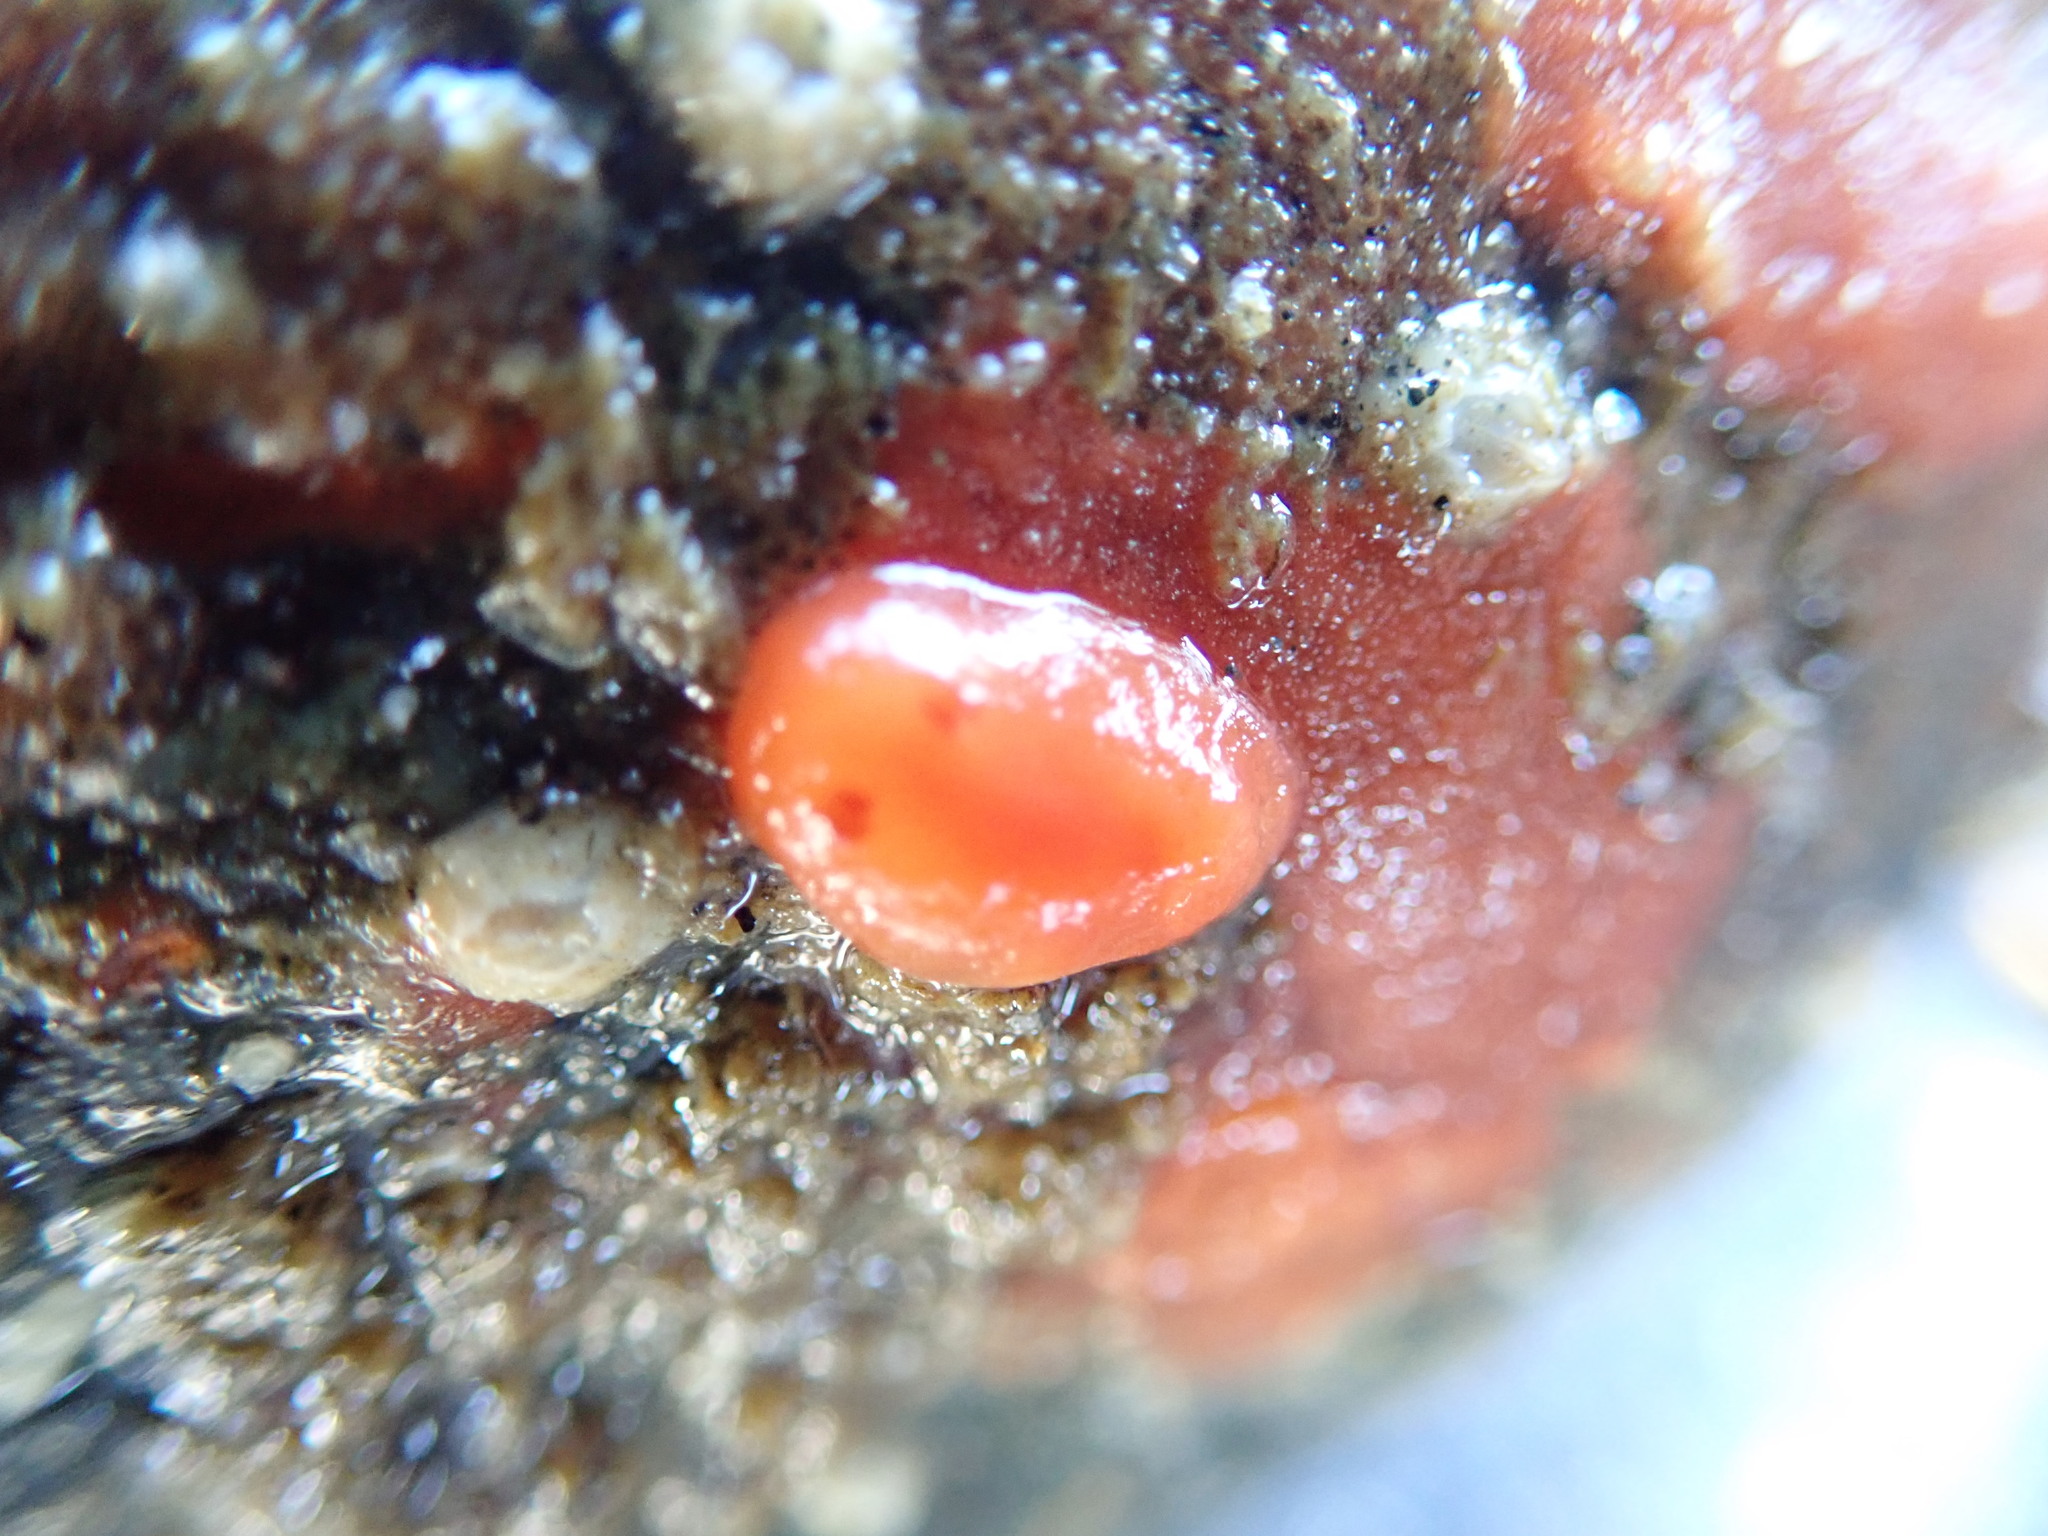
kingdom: Animalia
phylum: Mollusca
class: Gastropoda
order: Nudibranchia
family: Discodorididae
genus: Rostanga
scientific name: Rostanga pulchra
